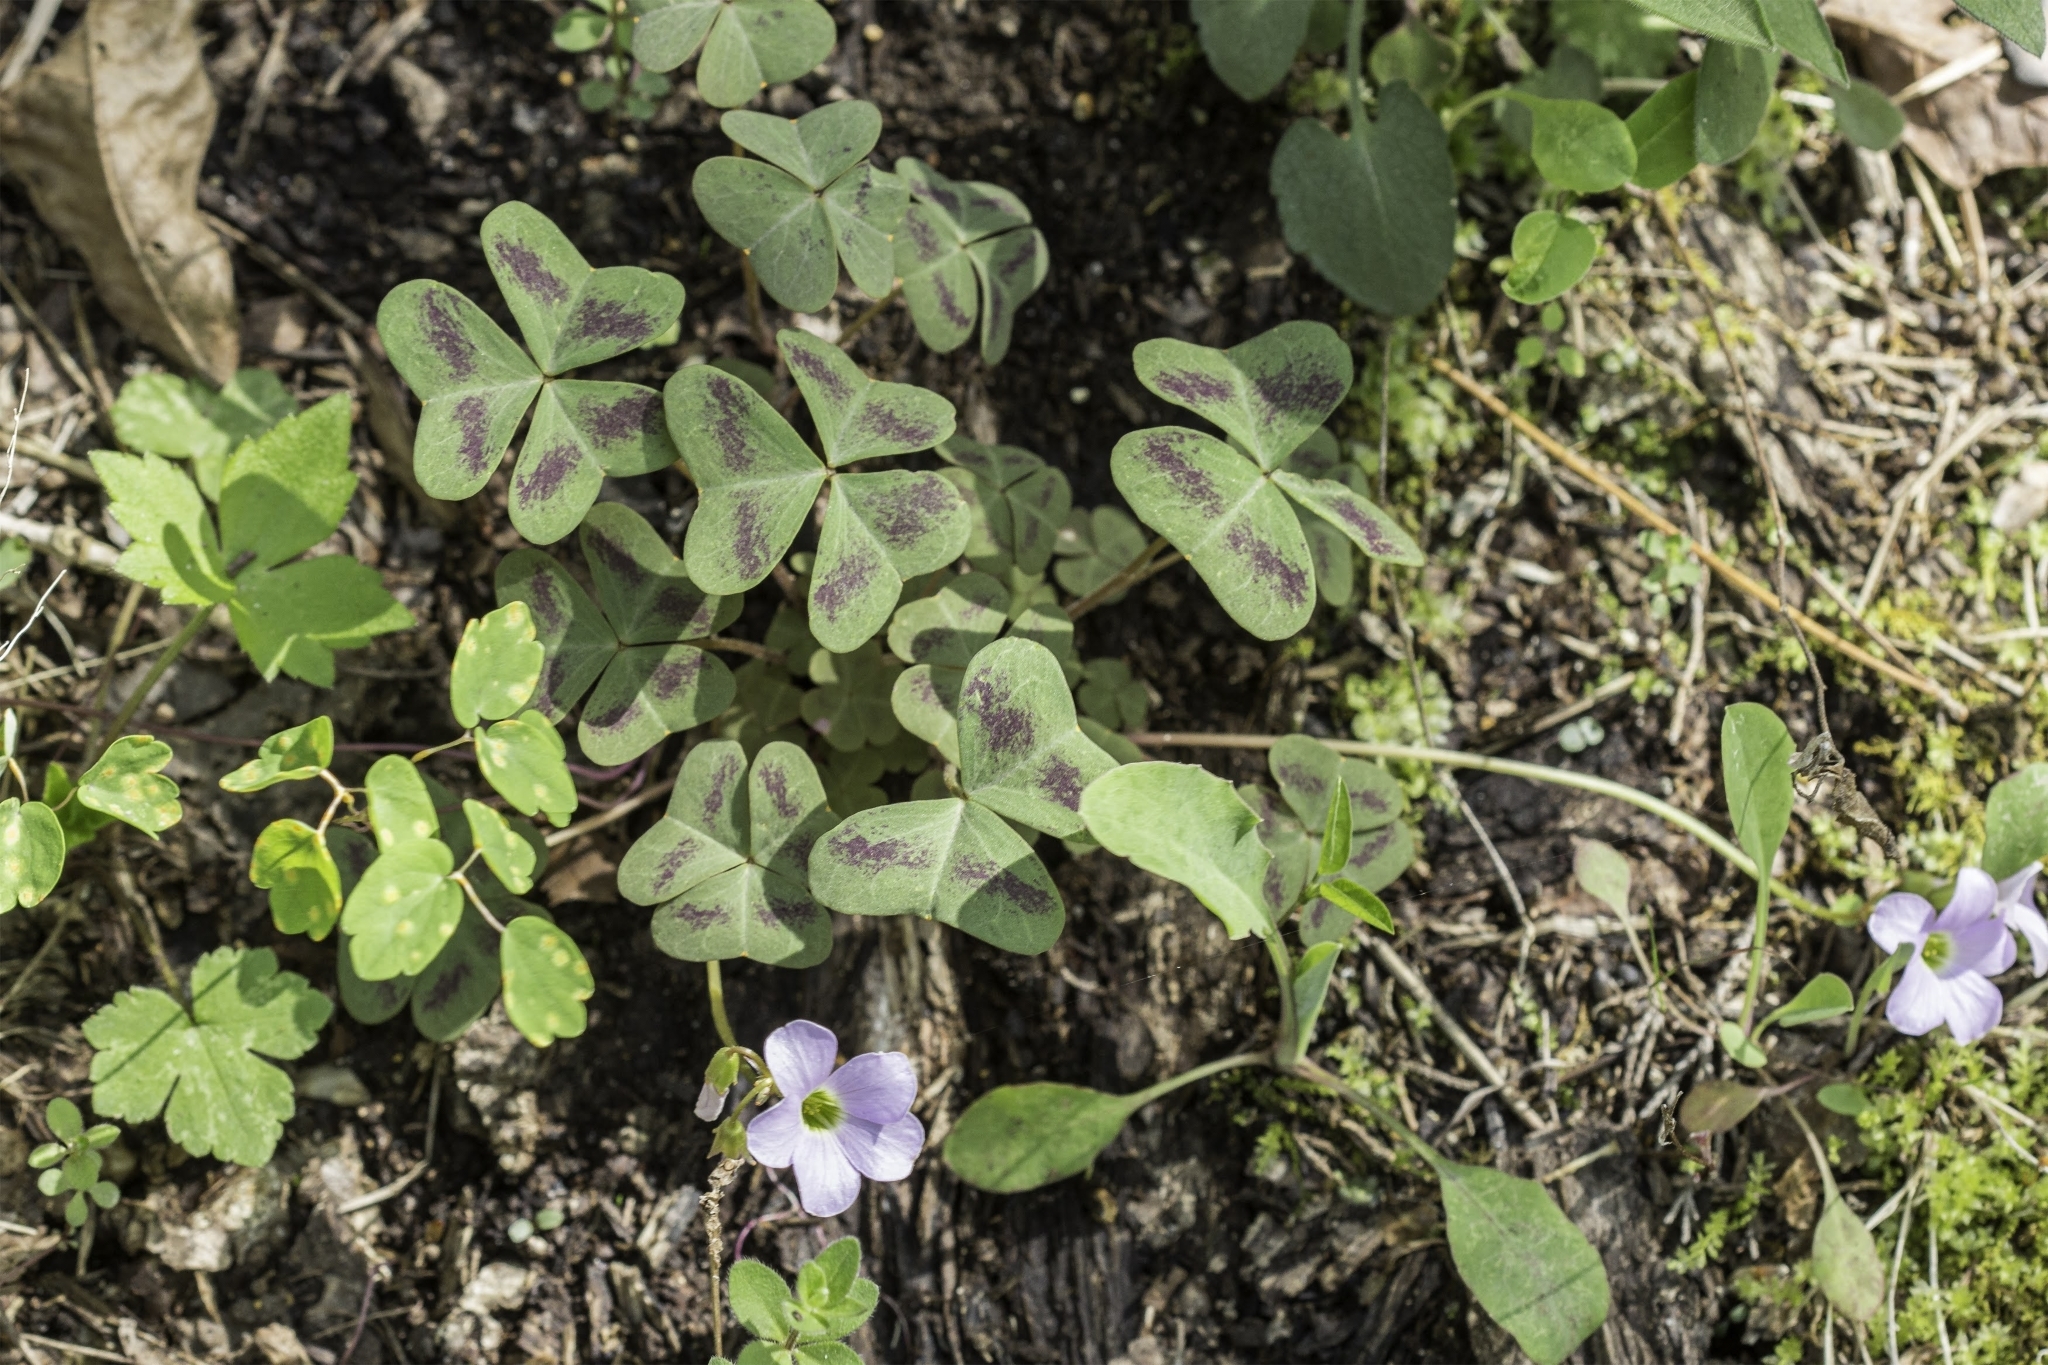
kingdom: Plantae
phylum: Tracheophyta
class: Magnoliopsida
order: Oxalidales
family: Oxalidaceae
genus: Oxalis
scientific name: Oxalis violacea
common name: Violet wood-sorrel
